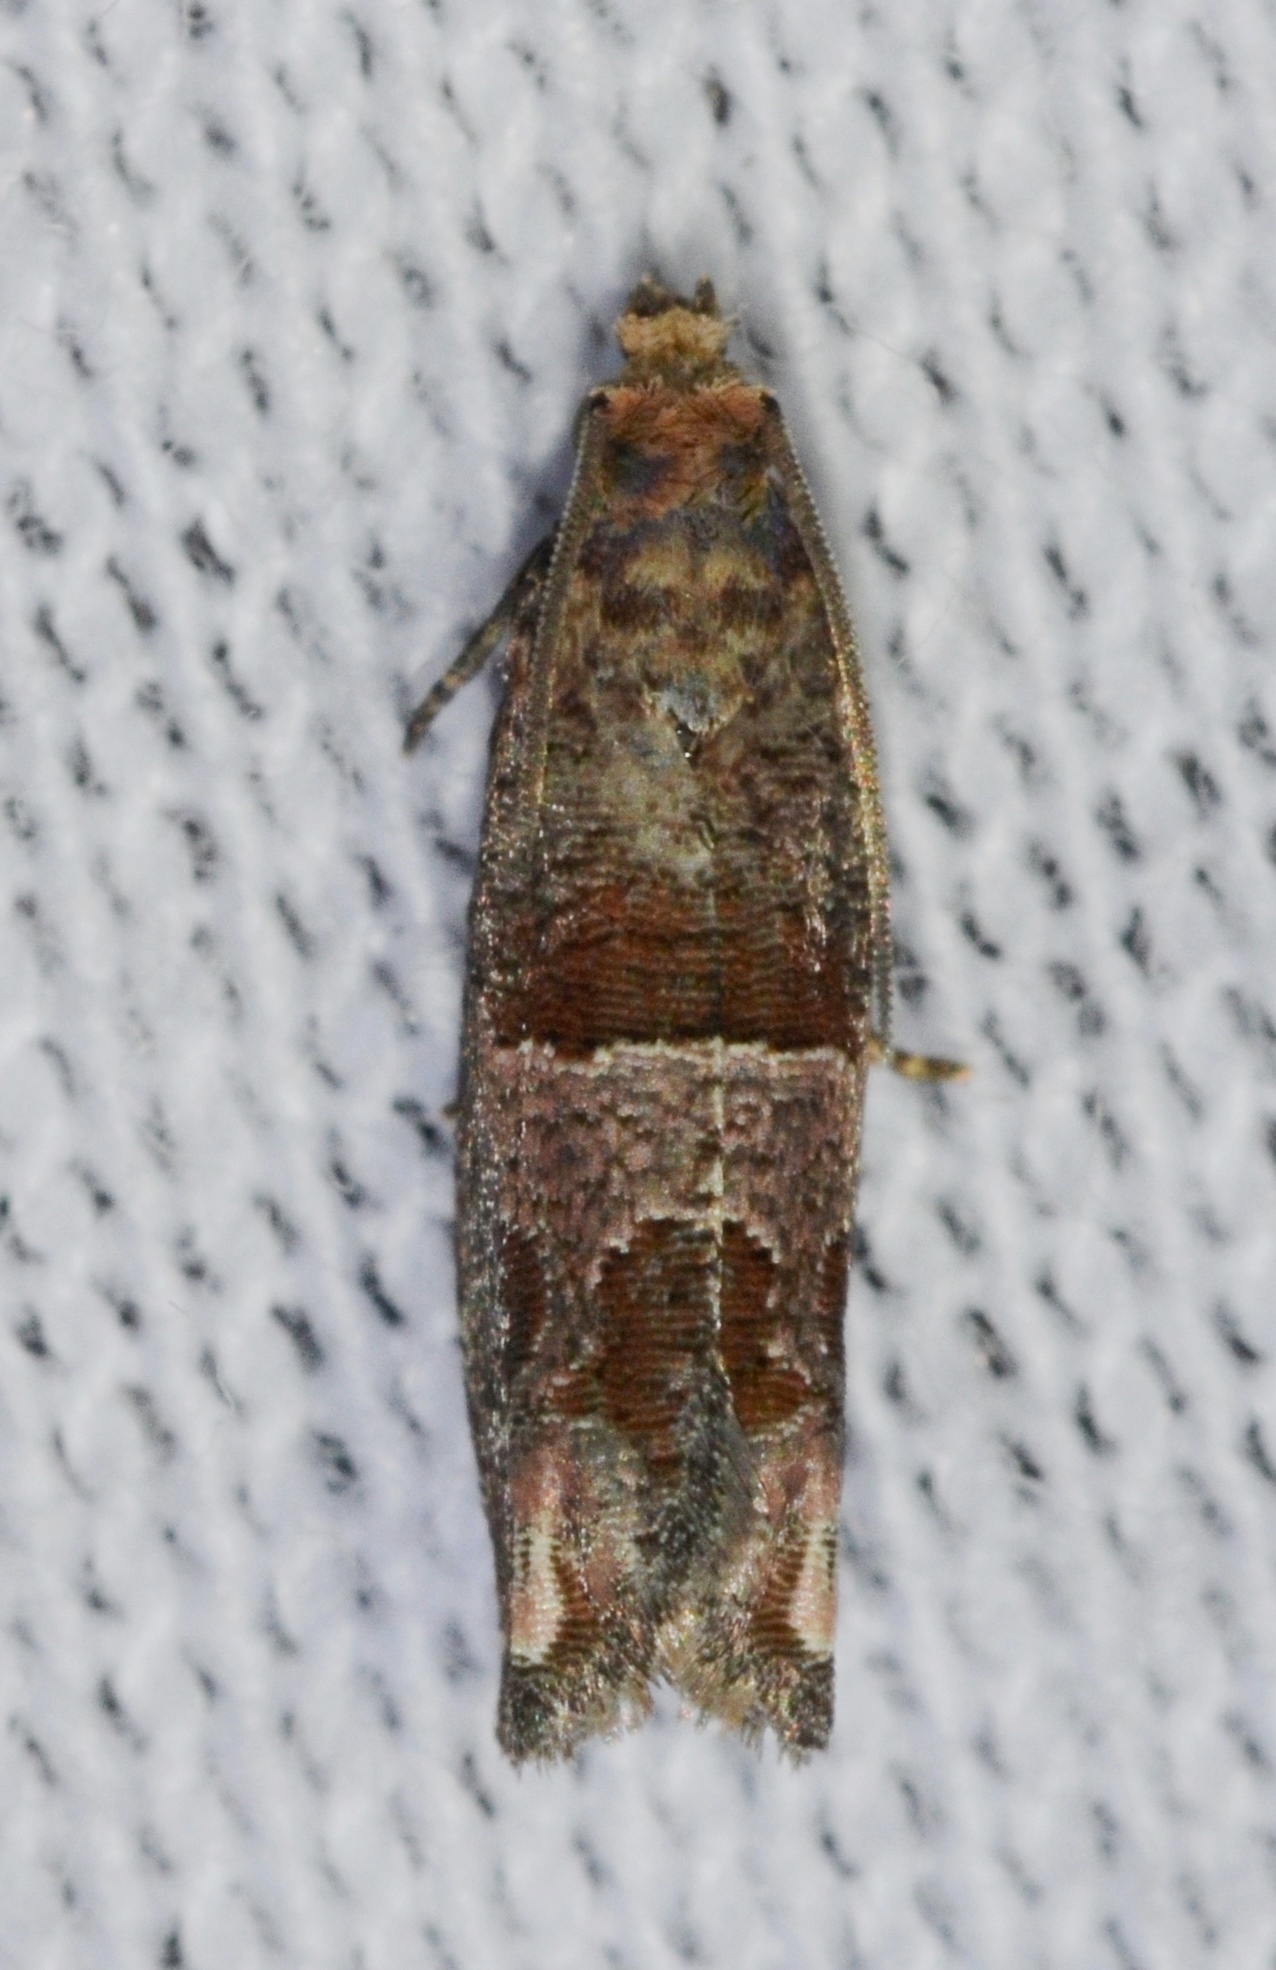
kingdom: Animalia
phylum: Arthropoda
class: Insecta
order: Lepidoptera
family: Tortricidae
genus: Sonia
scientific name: Sonia constrictana
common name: Constricted sonia moth
